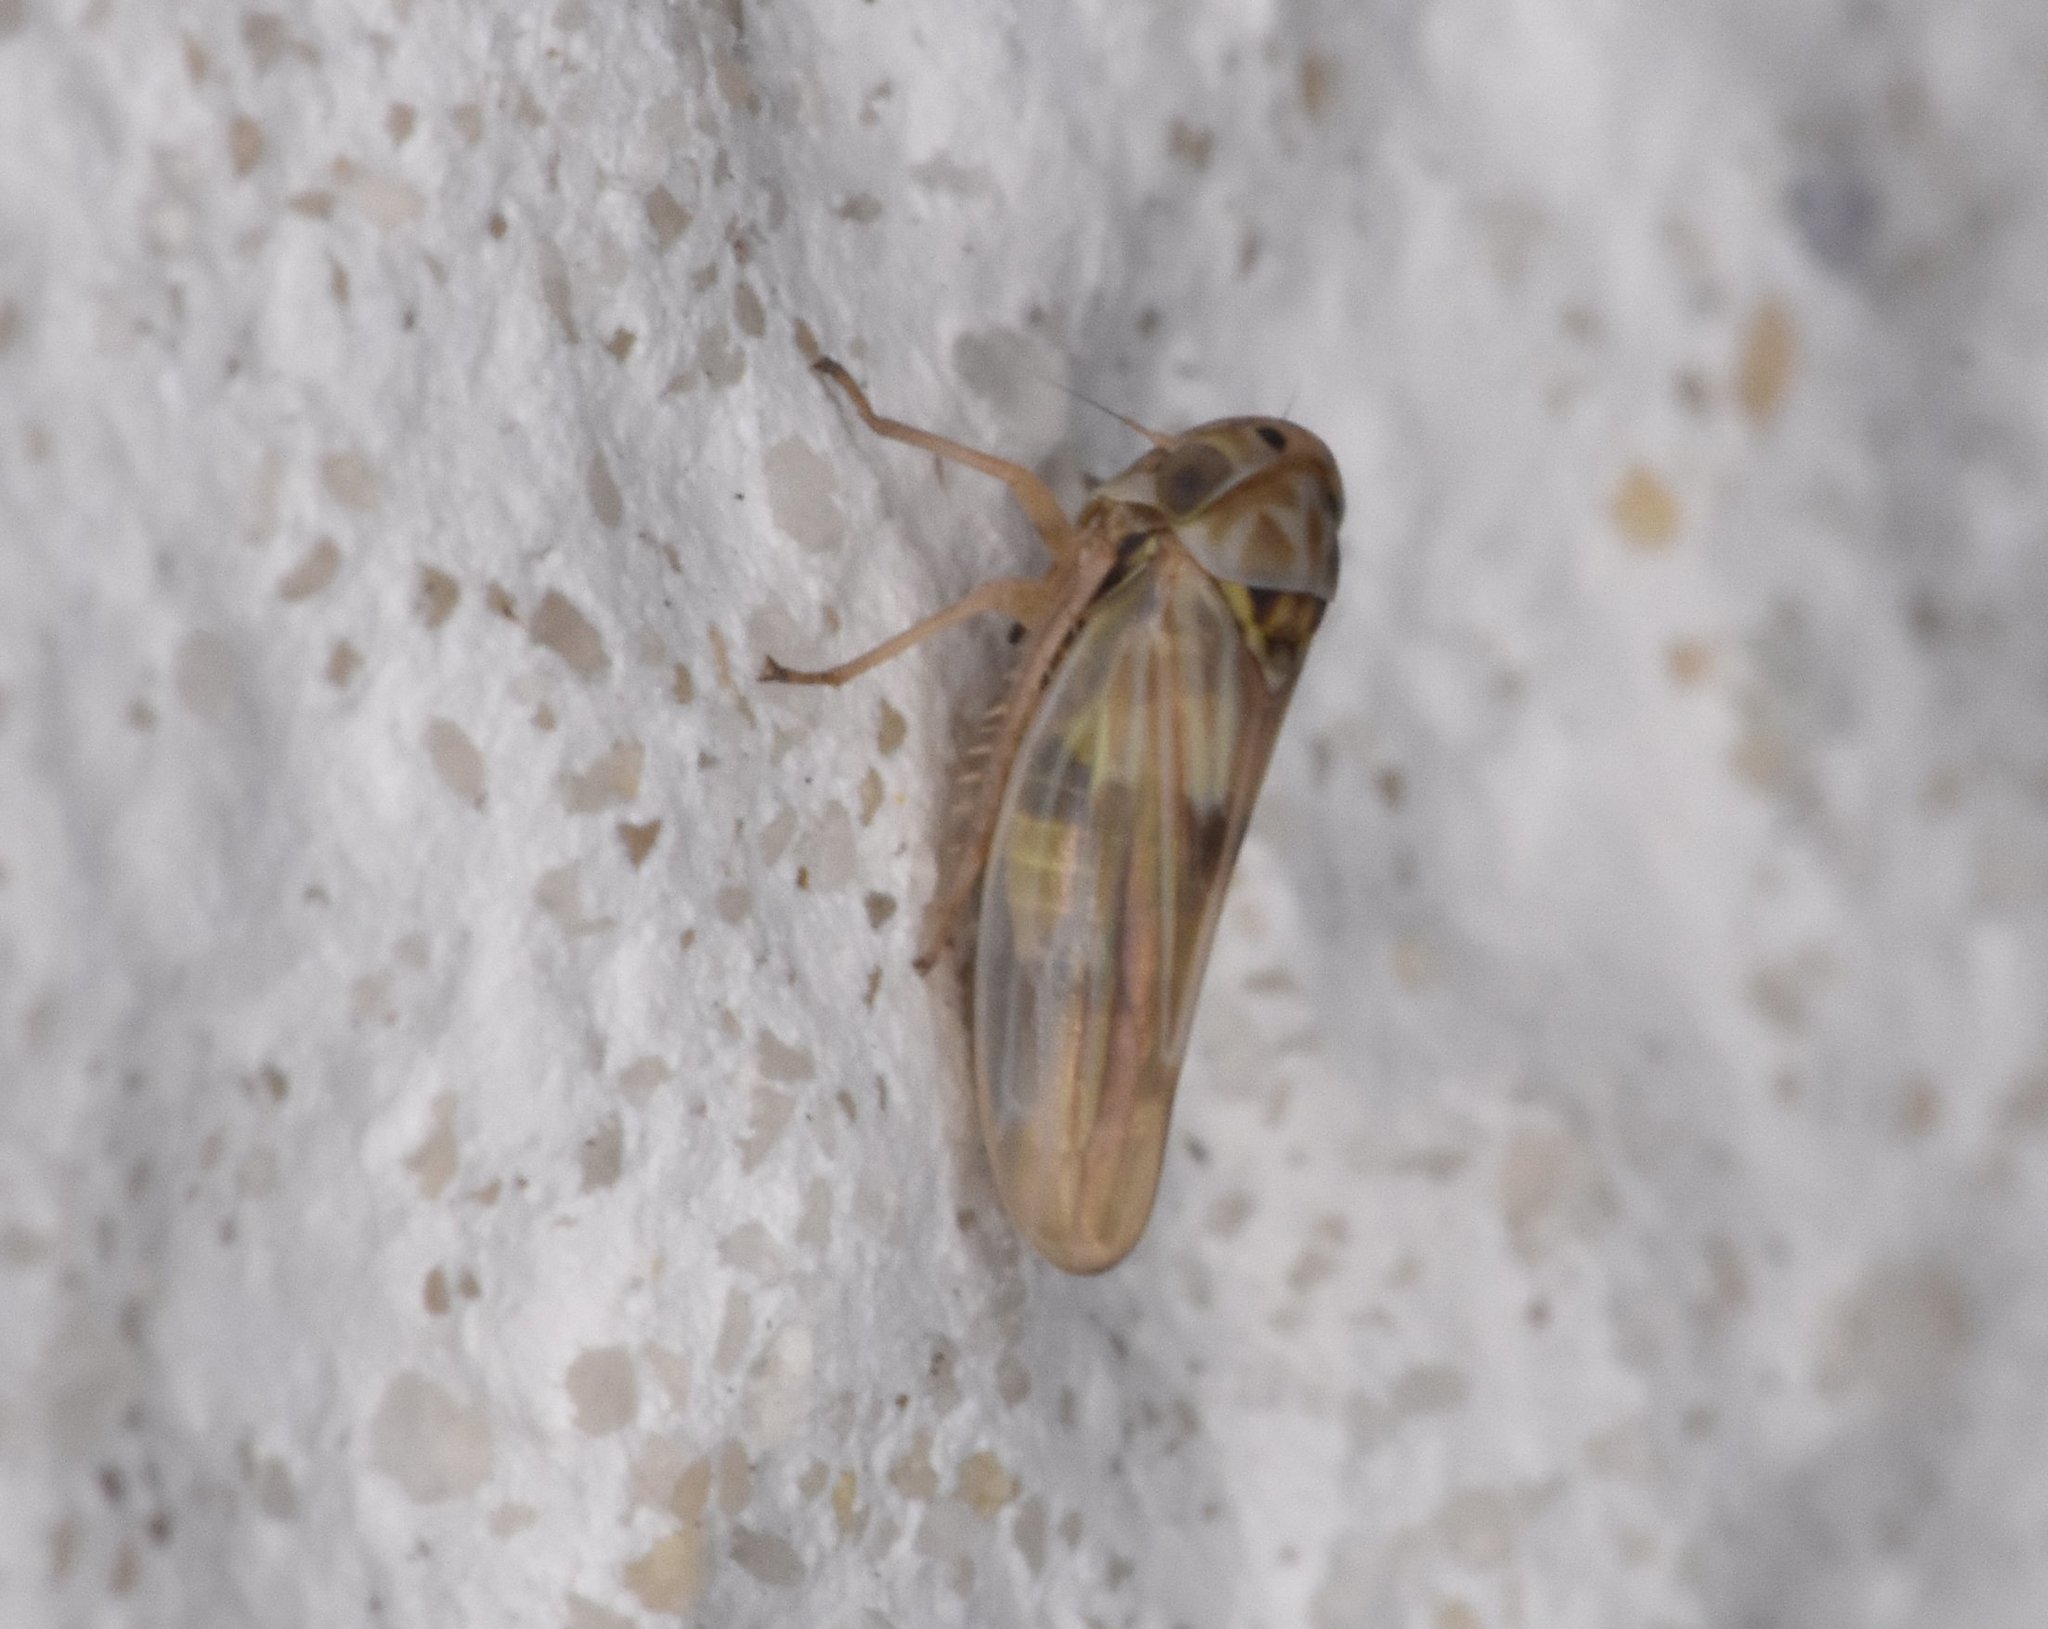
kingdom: Animalia
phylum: Arthropoda
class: Insecta
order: Hemiptera
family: Cicadellidae
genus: Agallia
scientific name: Agallia albidula
